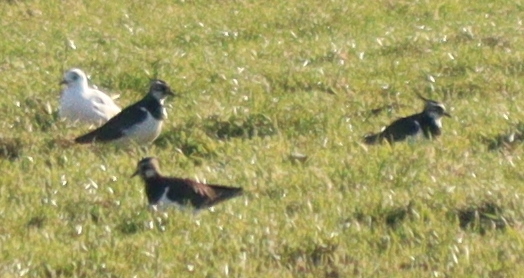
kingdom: Animalia
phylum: Chordata
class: Aves
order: Charadriiformes
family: Charadriidae
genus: Vanellus
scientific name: Vanellus vanellus
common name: Northern lapwing
